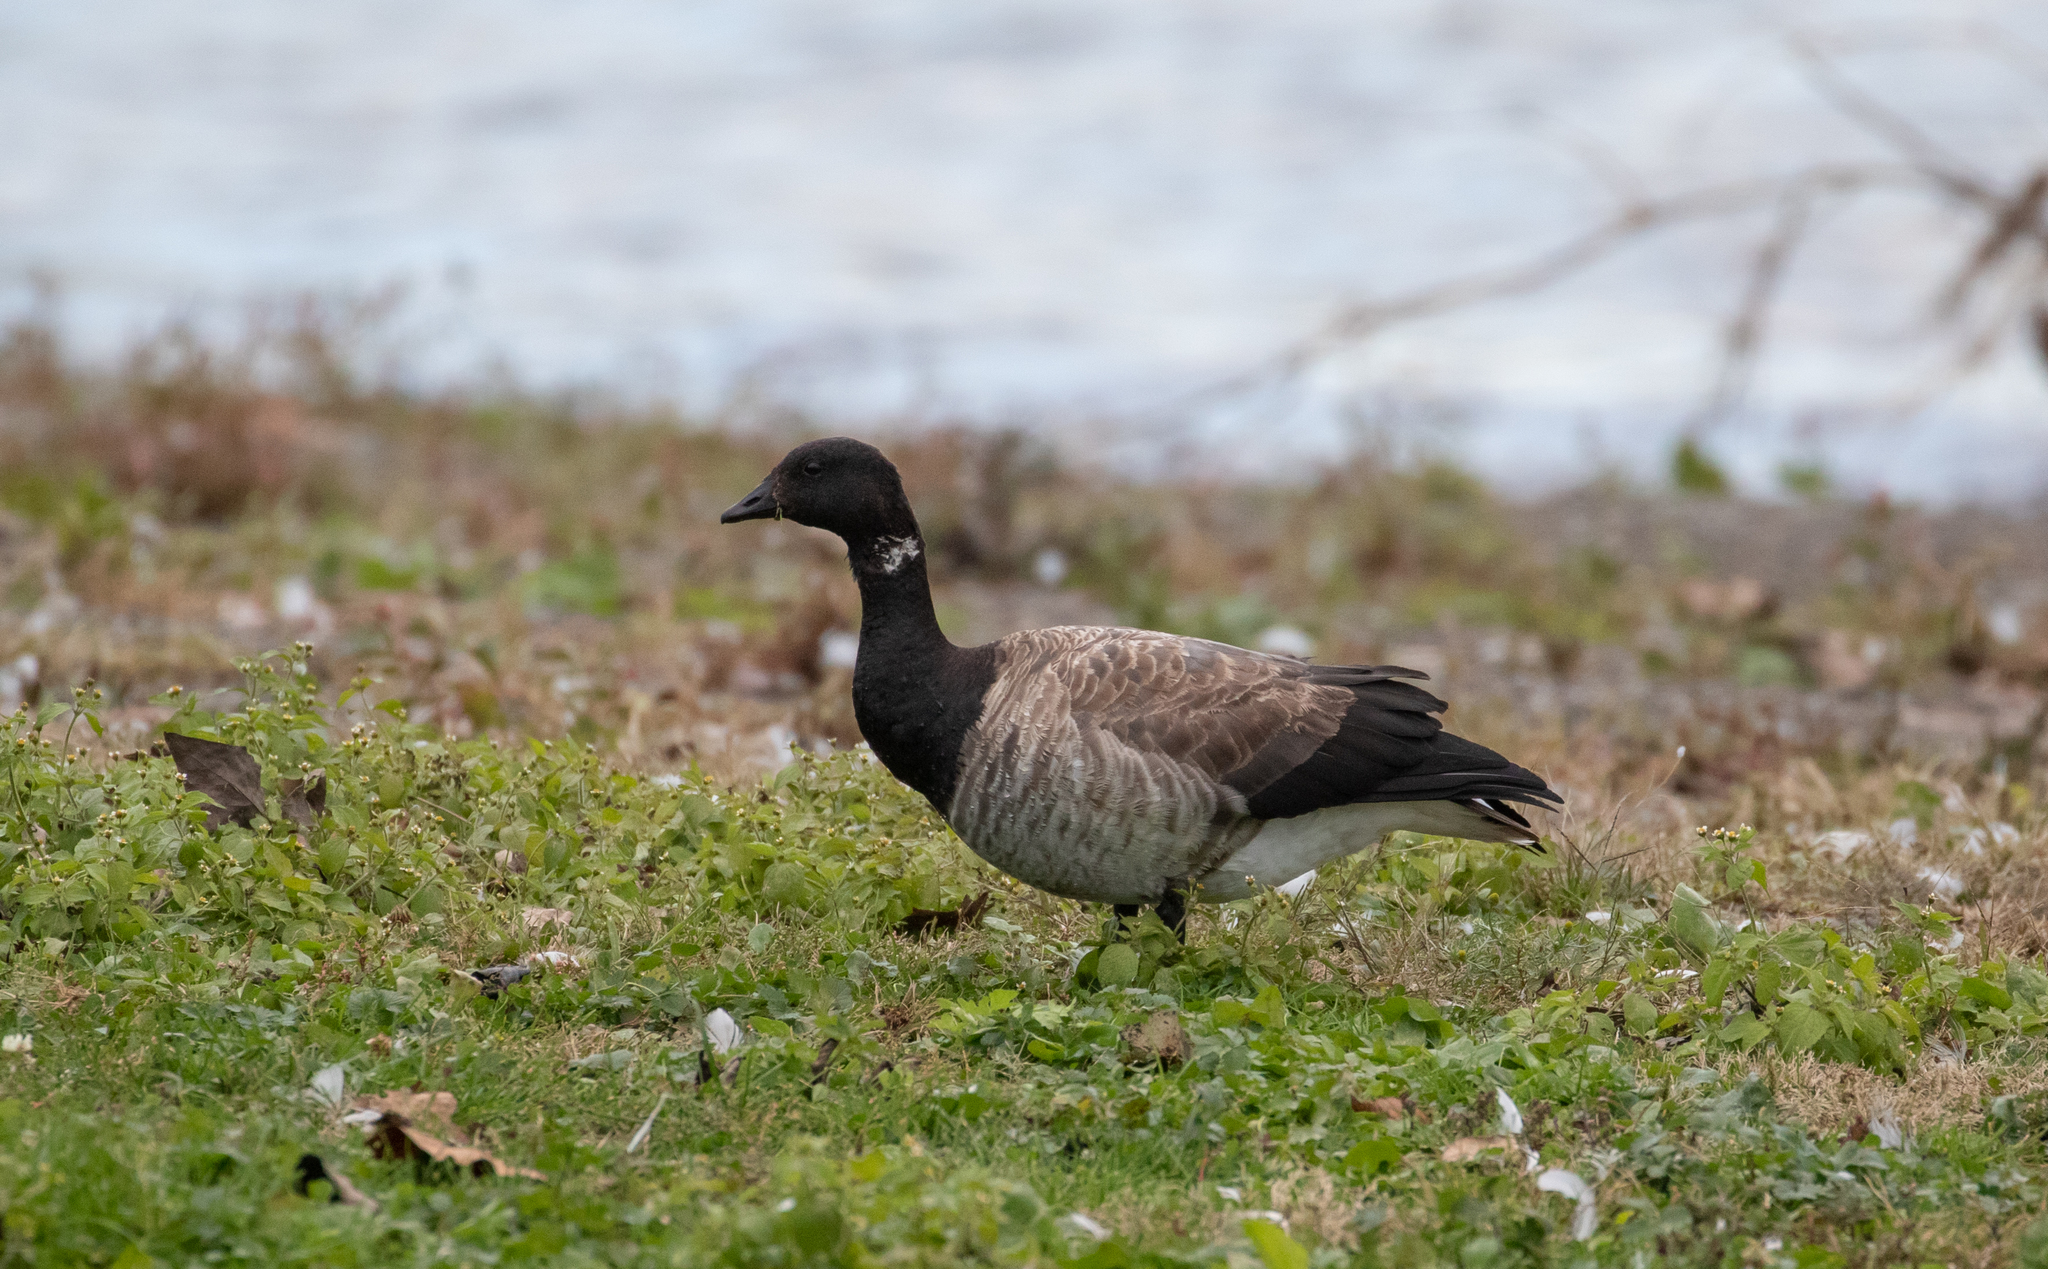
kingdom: Animalia
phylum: Chordata
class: Aves
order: Anseriformes
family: Anatidae
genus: Branta
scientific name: Branta bernicla
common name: Brant goose
